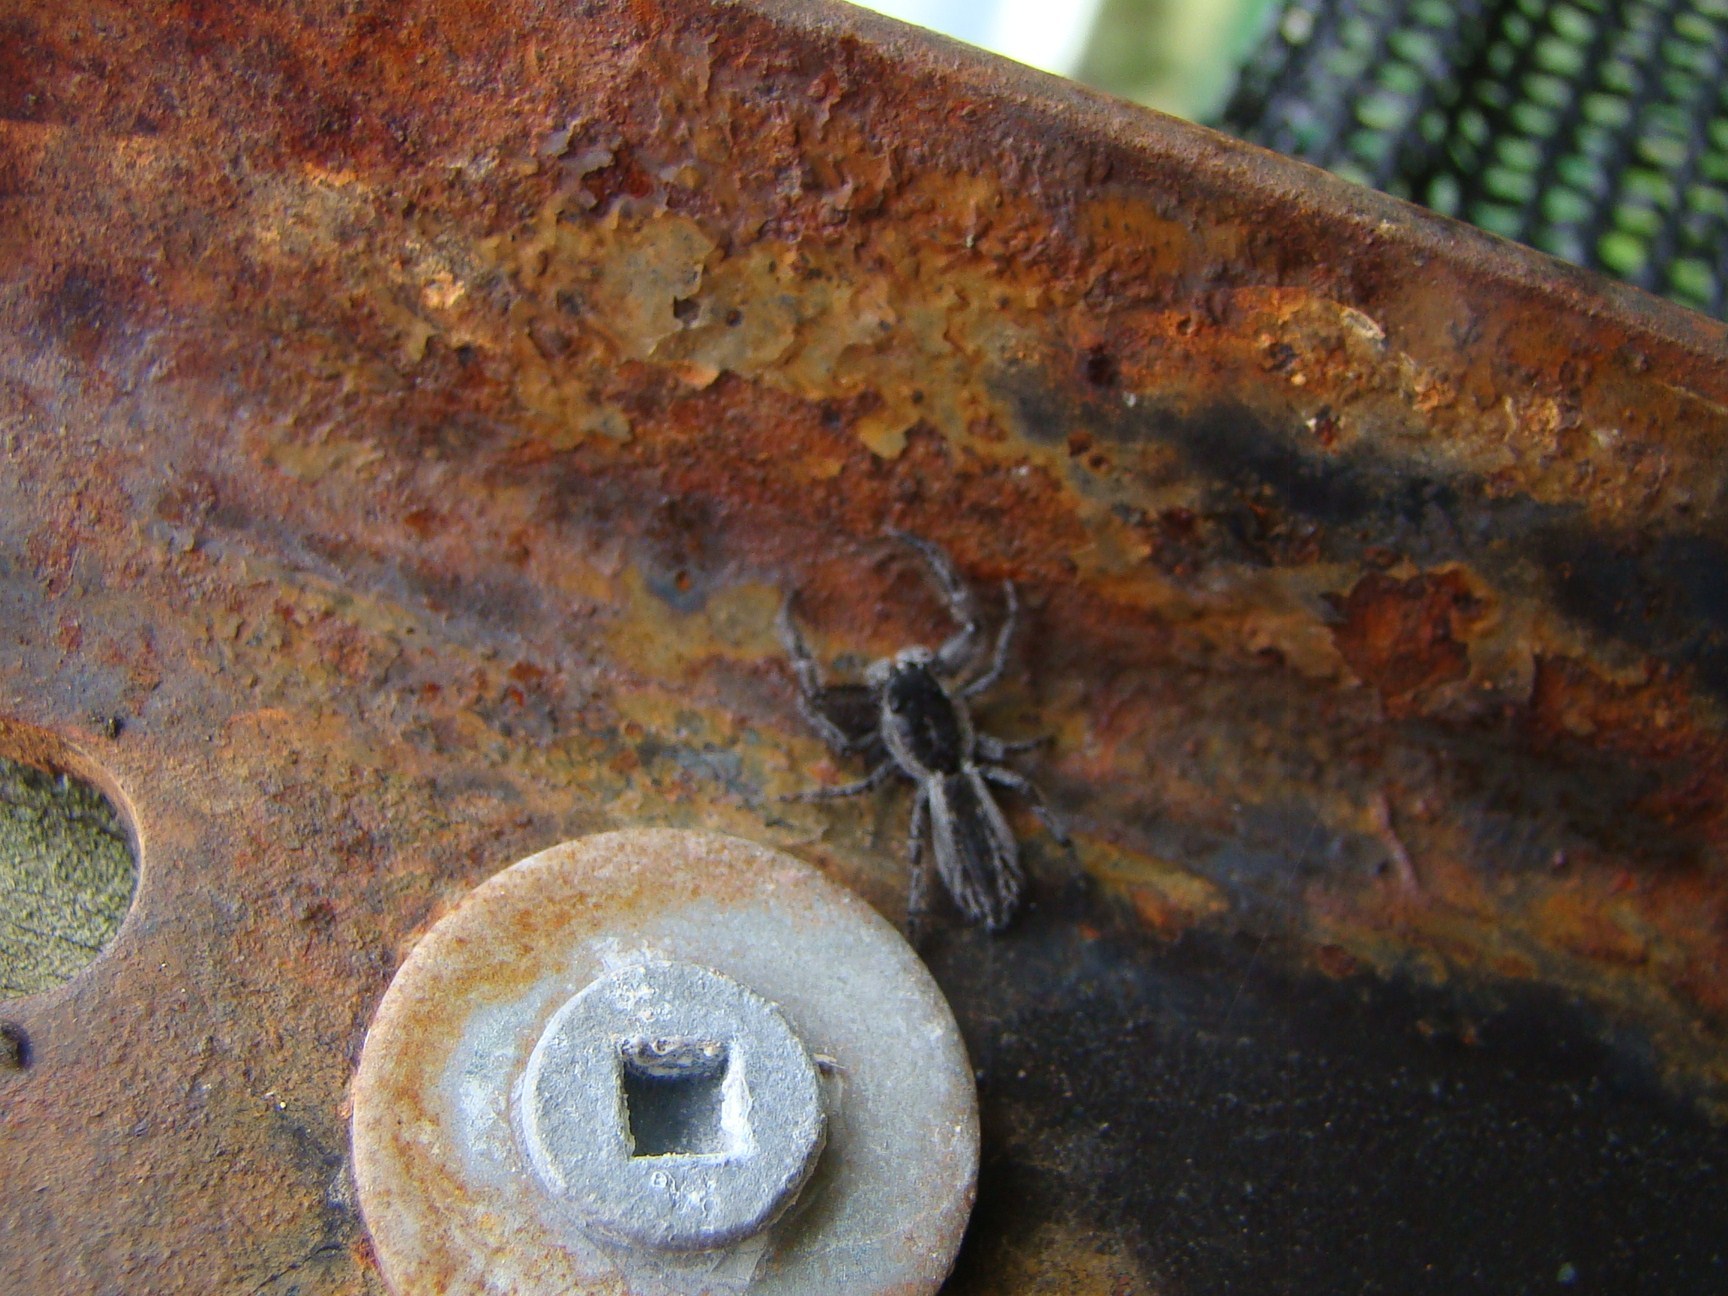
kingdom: Animalia
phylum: Arthropoda
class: Arachnida
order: Araneae
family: Salticidae
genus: Holoplatys
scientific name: Holoplatys
